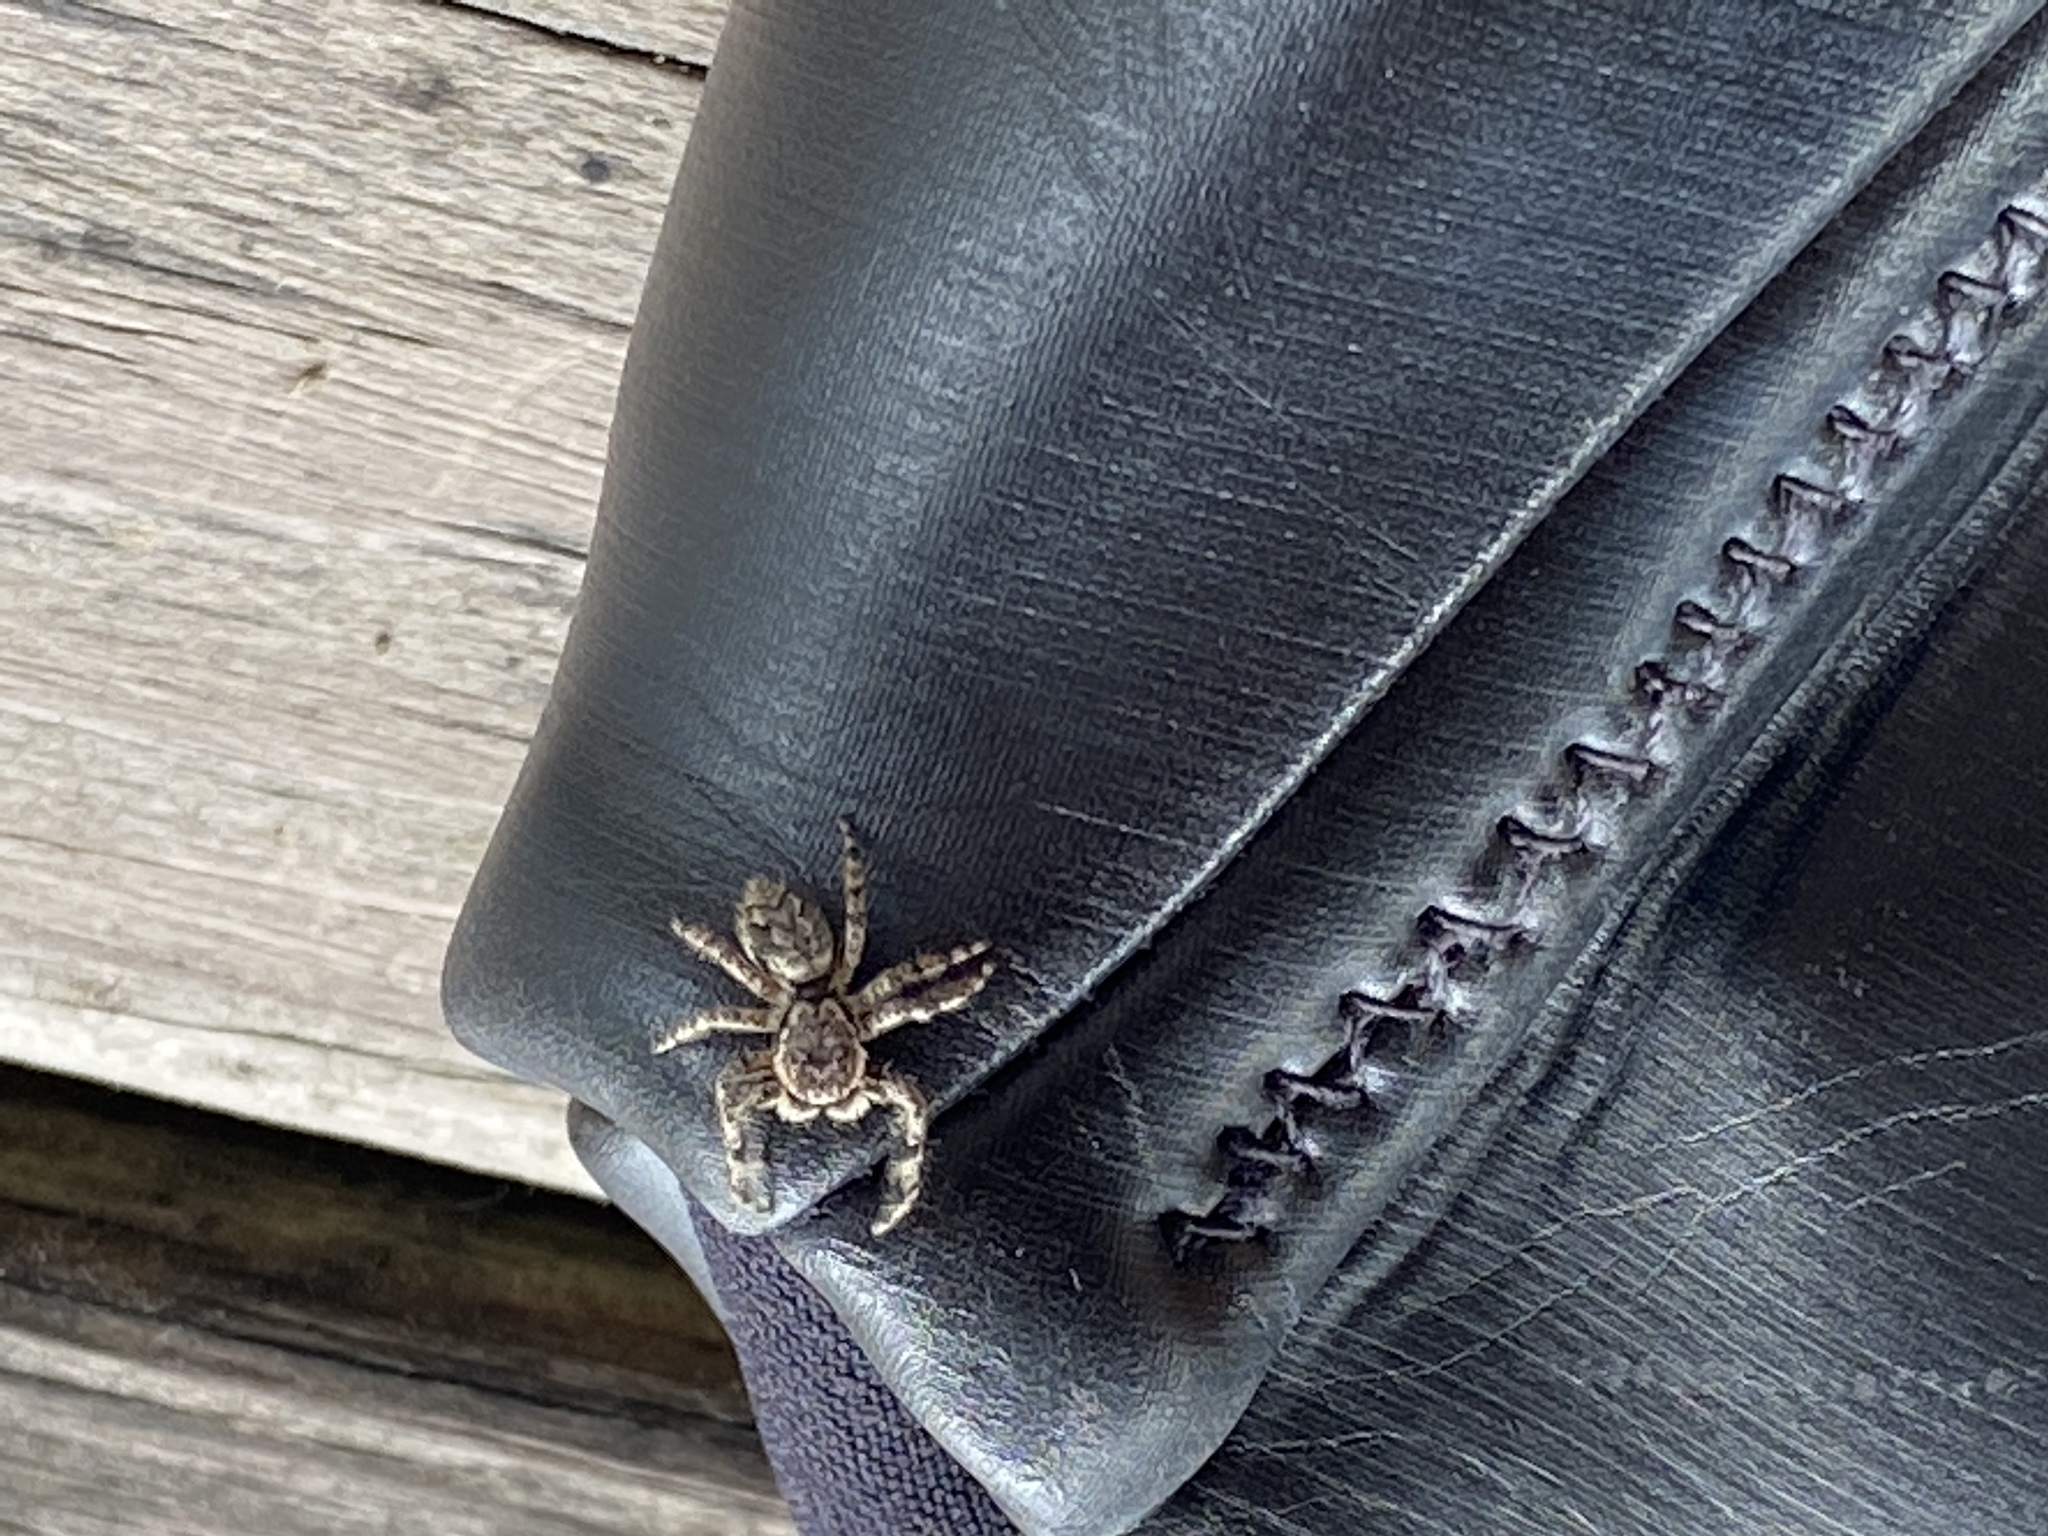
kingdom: Animalia
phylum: Arthropoda
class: Arachnida
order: Araneae
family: Salticidae
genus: Platycryptus
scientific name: Platycryptus undatus
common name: Tan jumping spider
